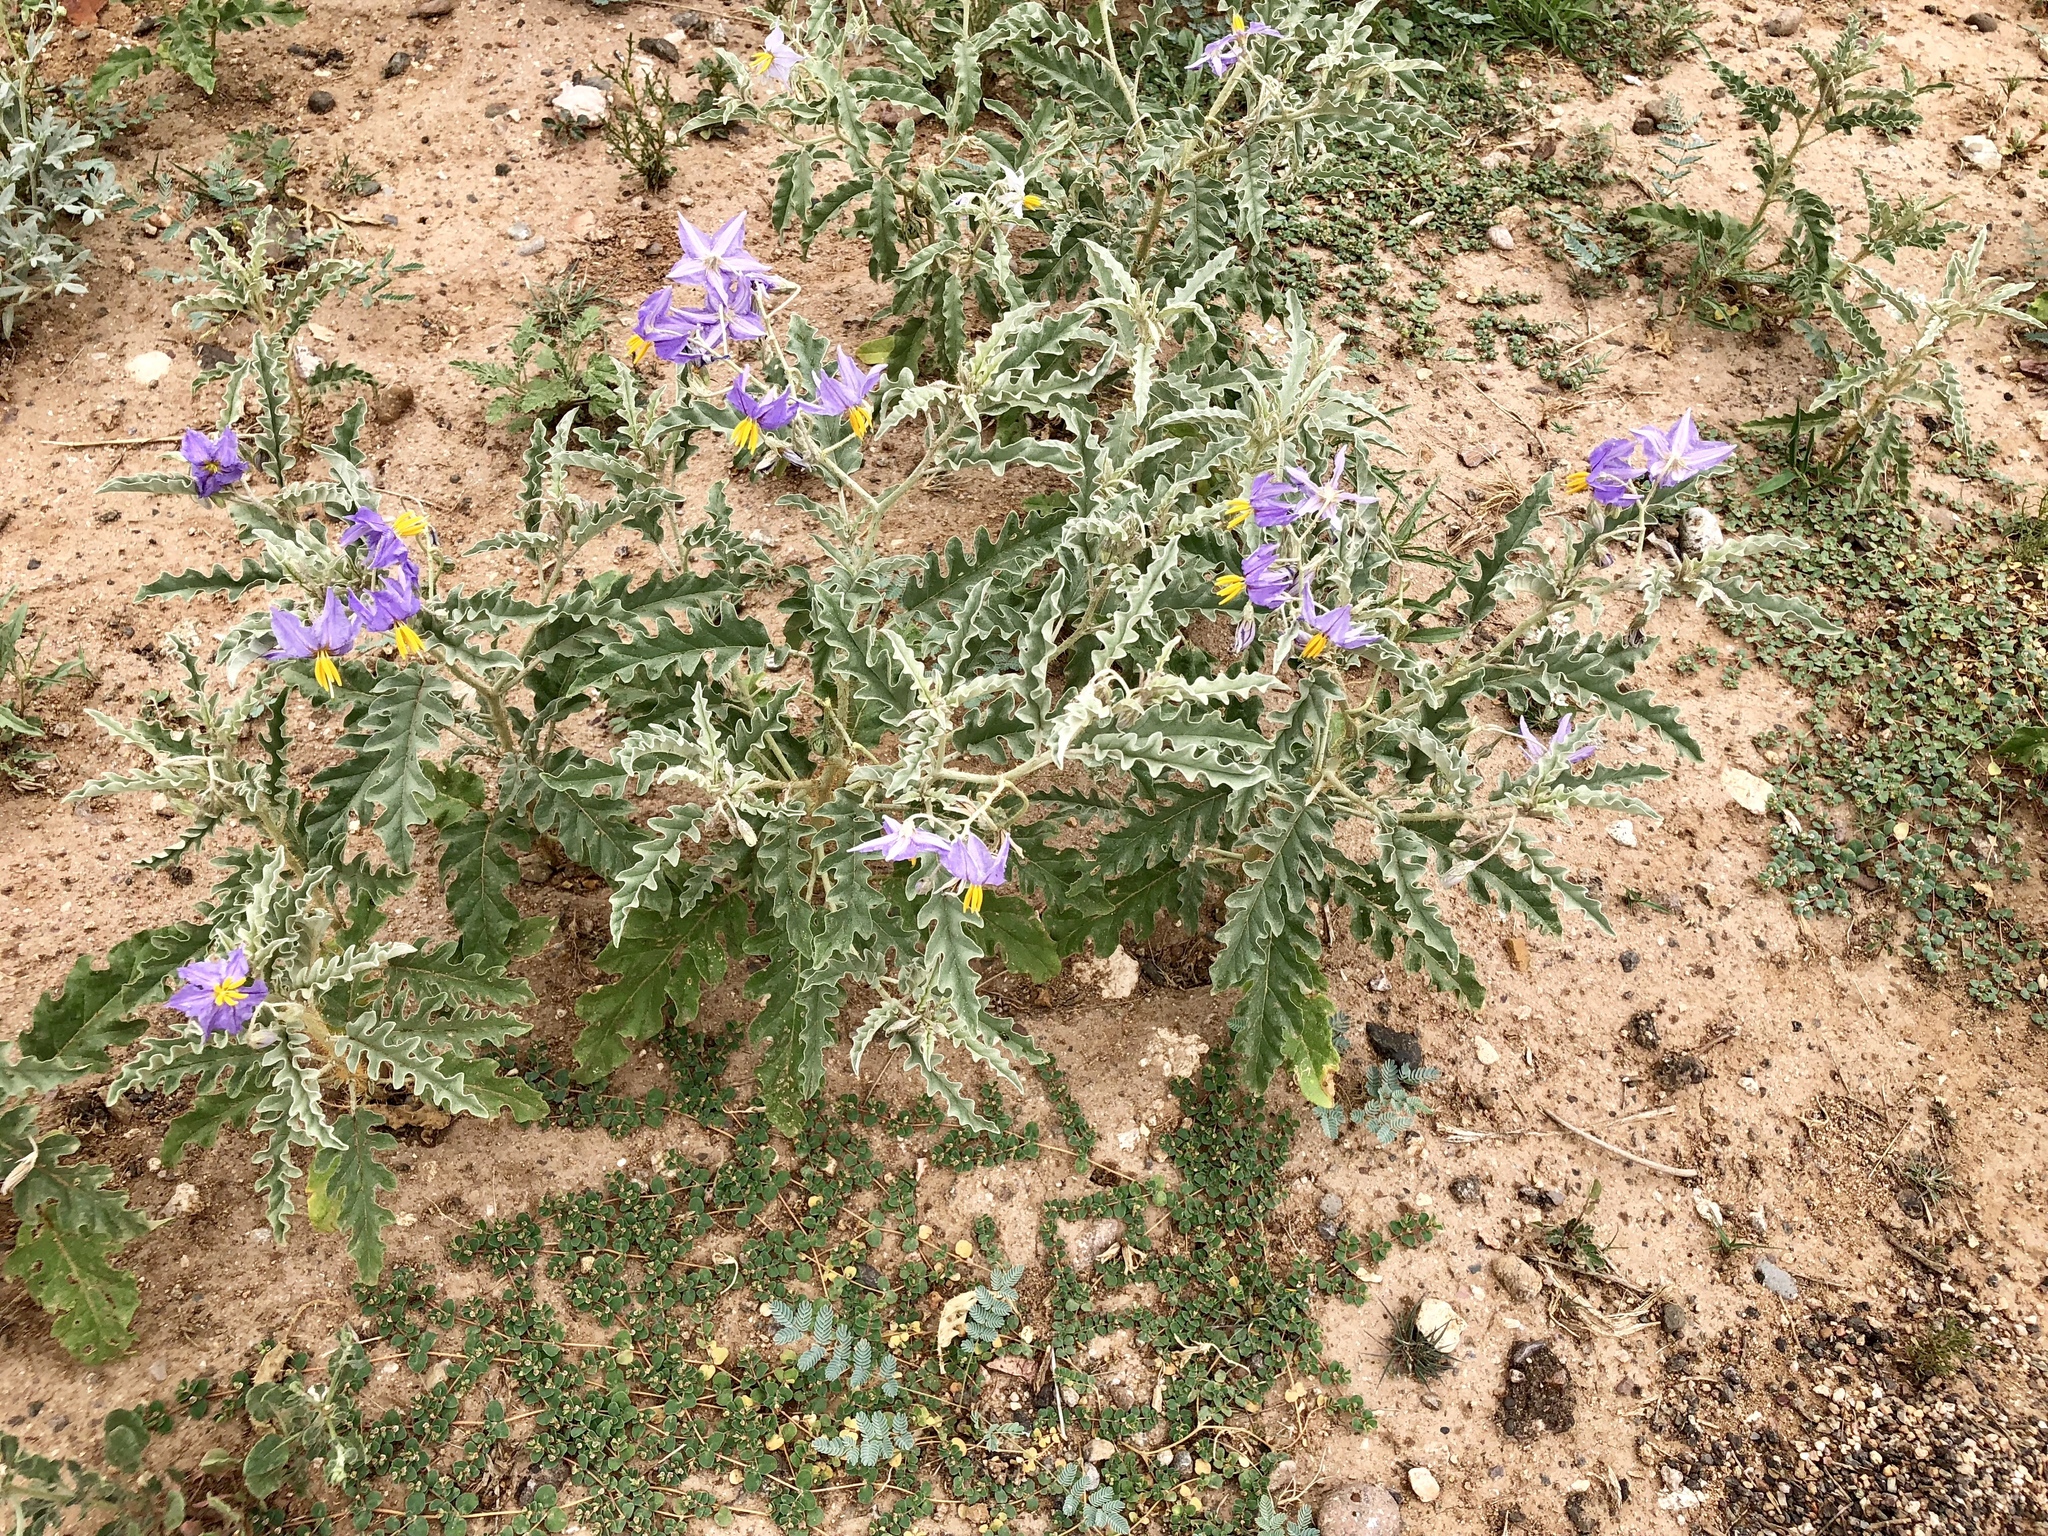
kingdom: Plantae
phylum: Tracheophyta
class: Magnoliopsida
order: Solanales
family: Solanaceae
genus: Solanum
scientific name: Solanum elaeagnifolium
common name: Silverleaf nightshade
